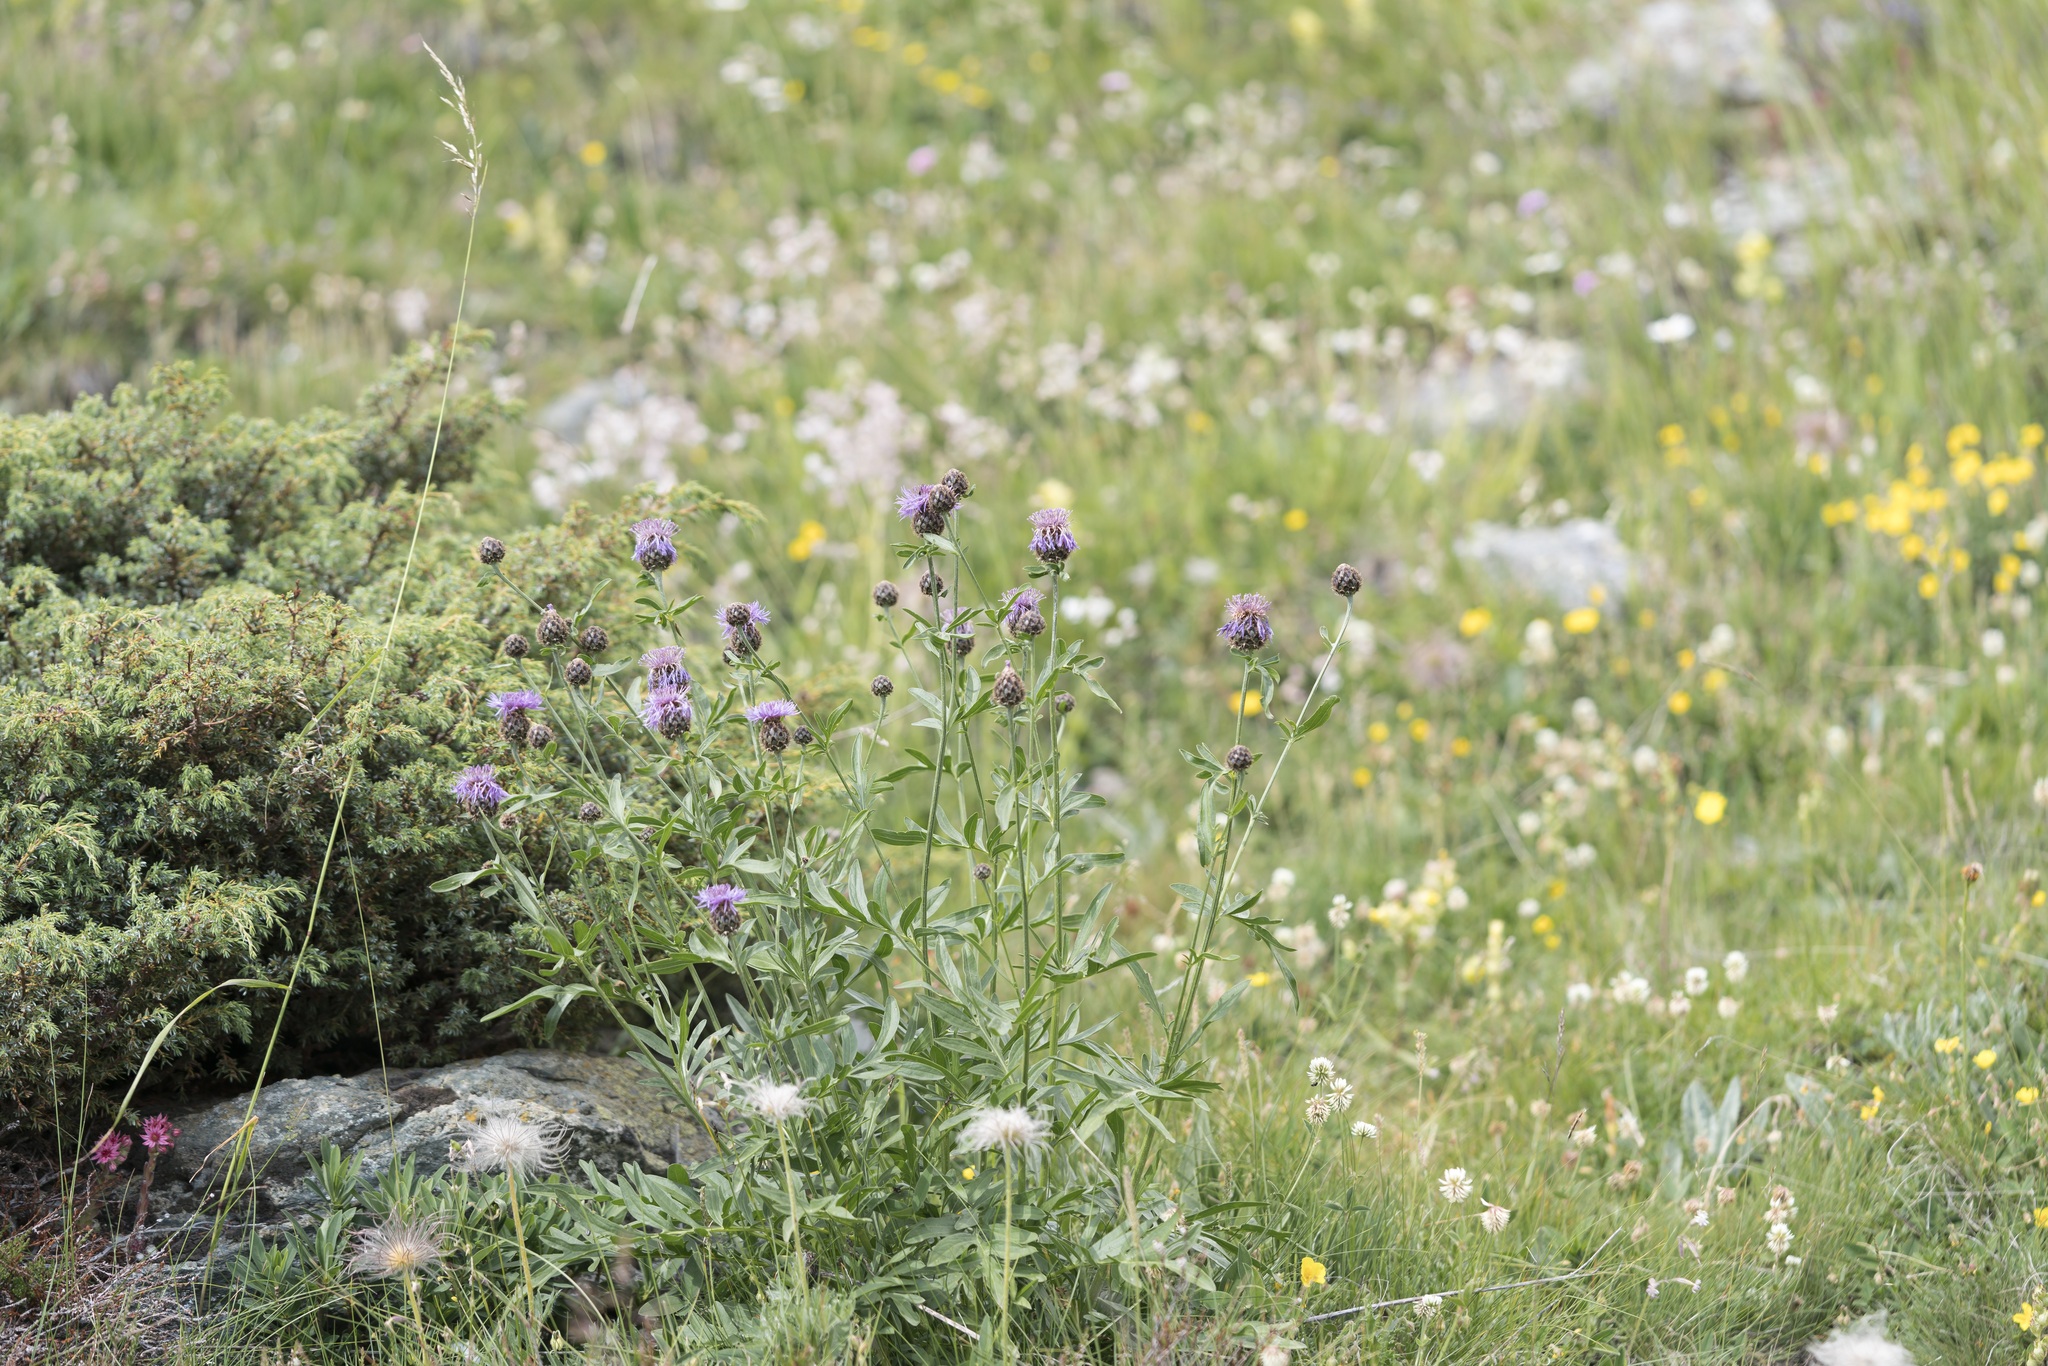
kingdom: Plantae
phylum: Tracheophyta
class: Magnoliopsida
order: Asterales
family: Asteraceae
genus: Centaurea
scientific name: Centaurea scabiosa
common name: Greater knapweed
